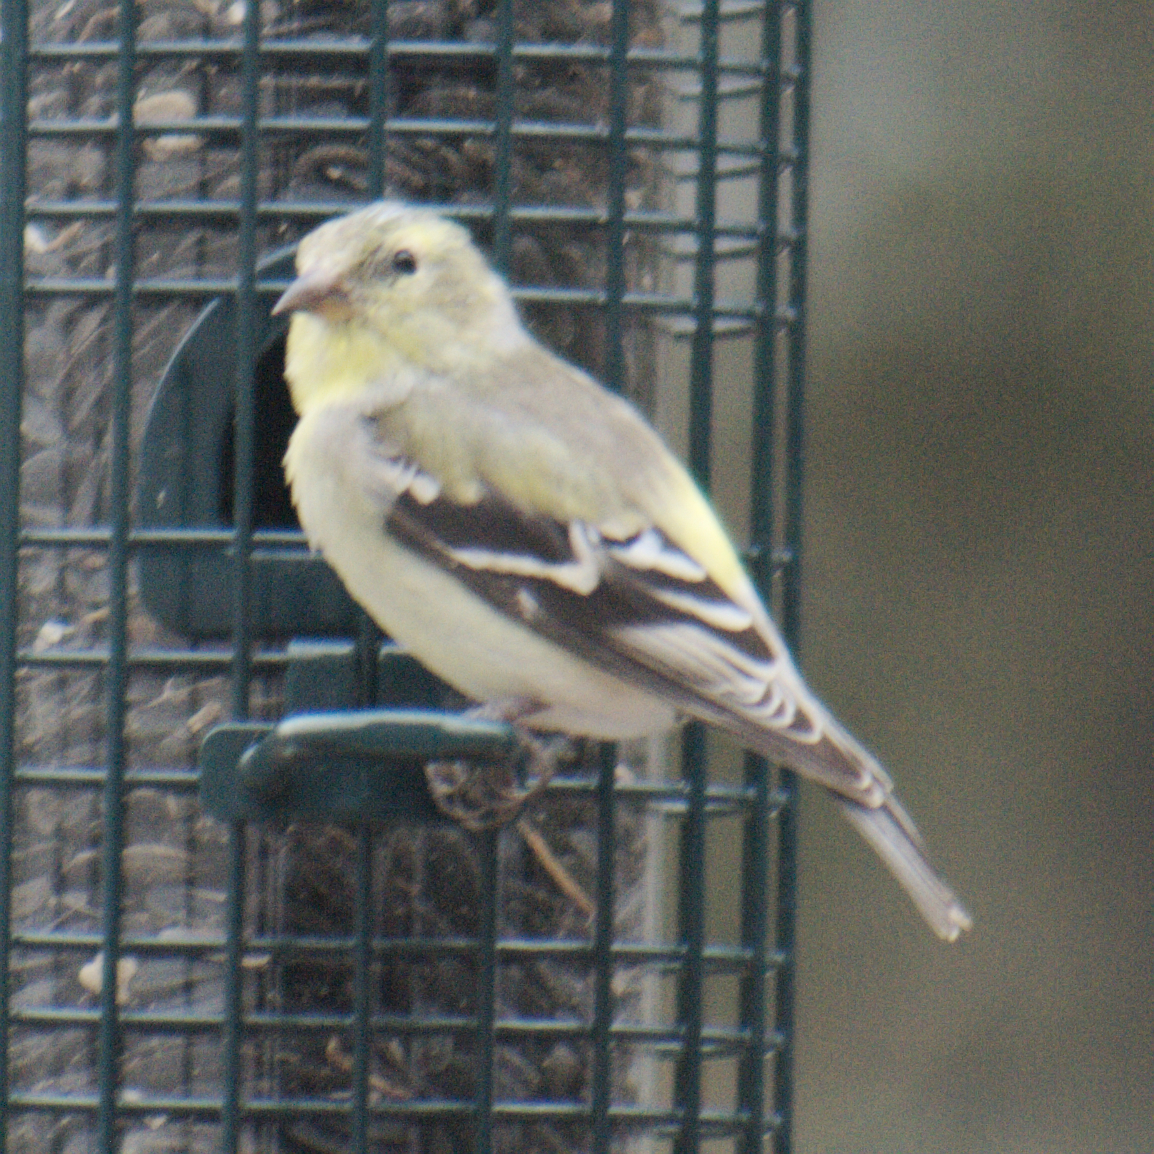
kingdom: Animalia
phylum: Chordata
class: Aves
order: Passeriformes
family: Fringillidae
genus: Spinus
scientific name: Spinus tristis
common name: American goldfinch
